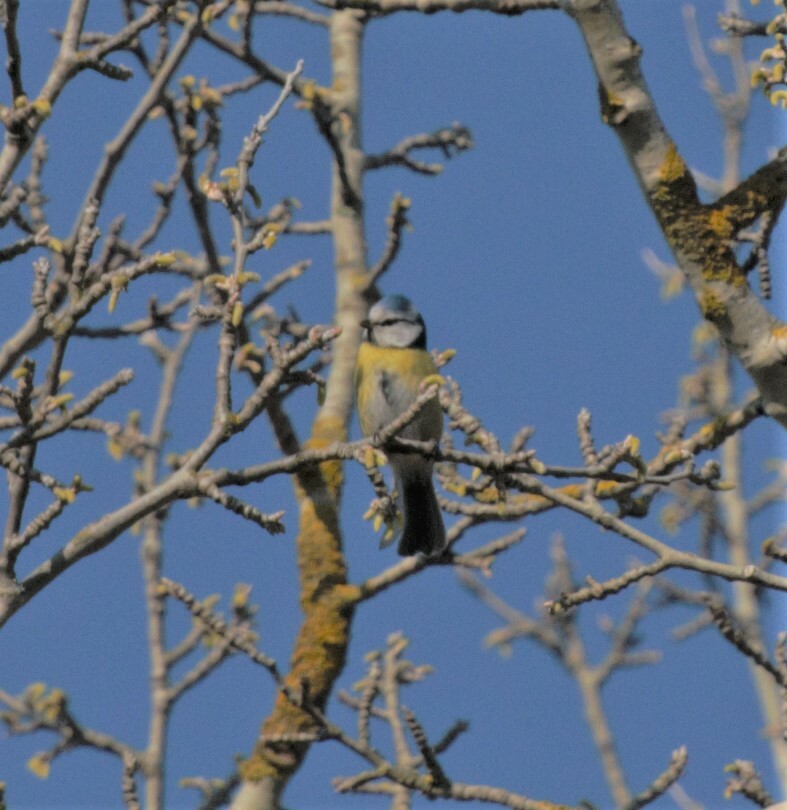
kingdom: Animalia
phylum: Chordata
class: Aves
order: Passeriformes
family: Paridae
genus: Cyanistes
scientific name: Cyanistes caeruleus
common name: Eurasian blue tit
